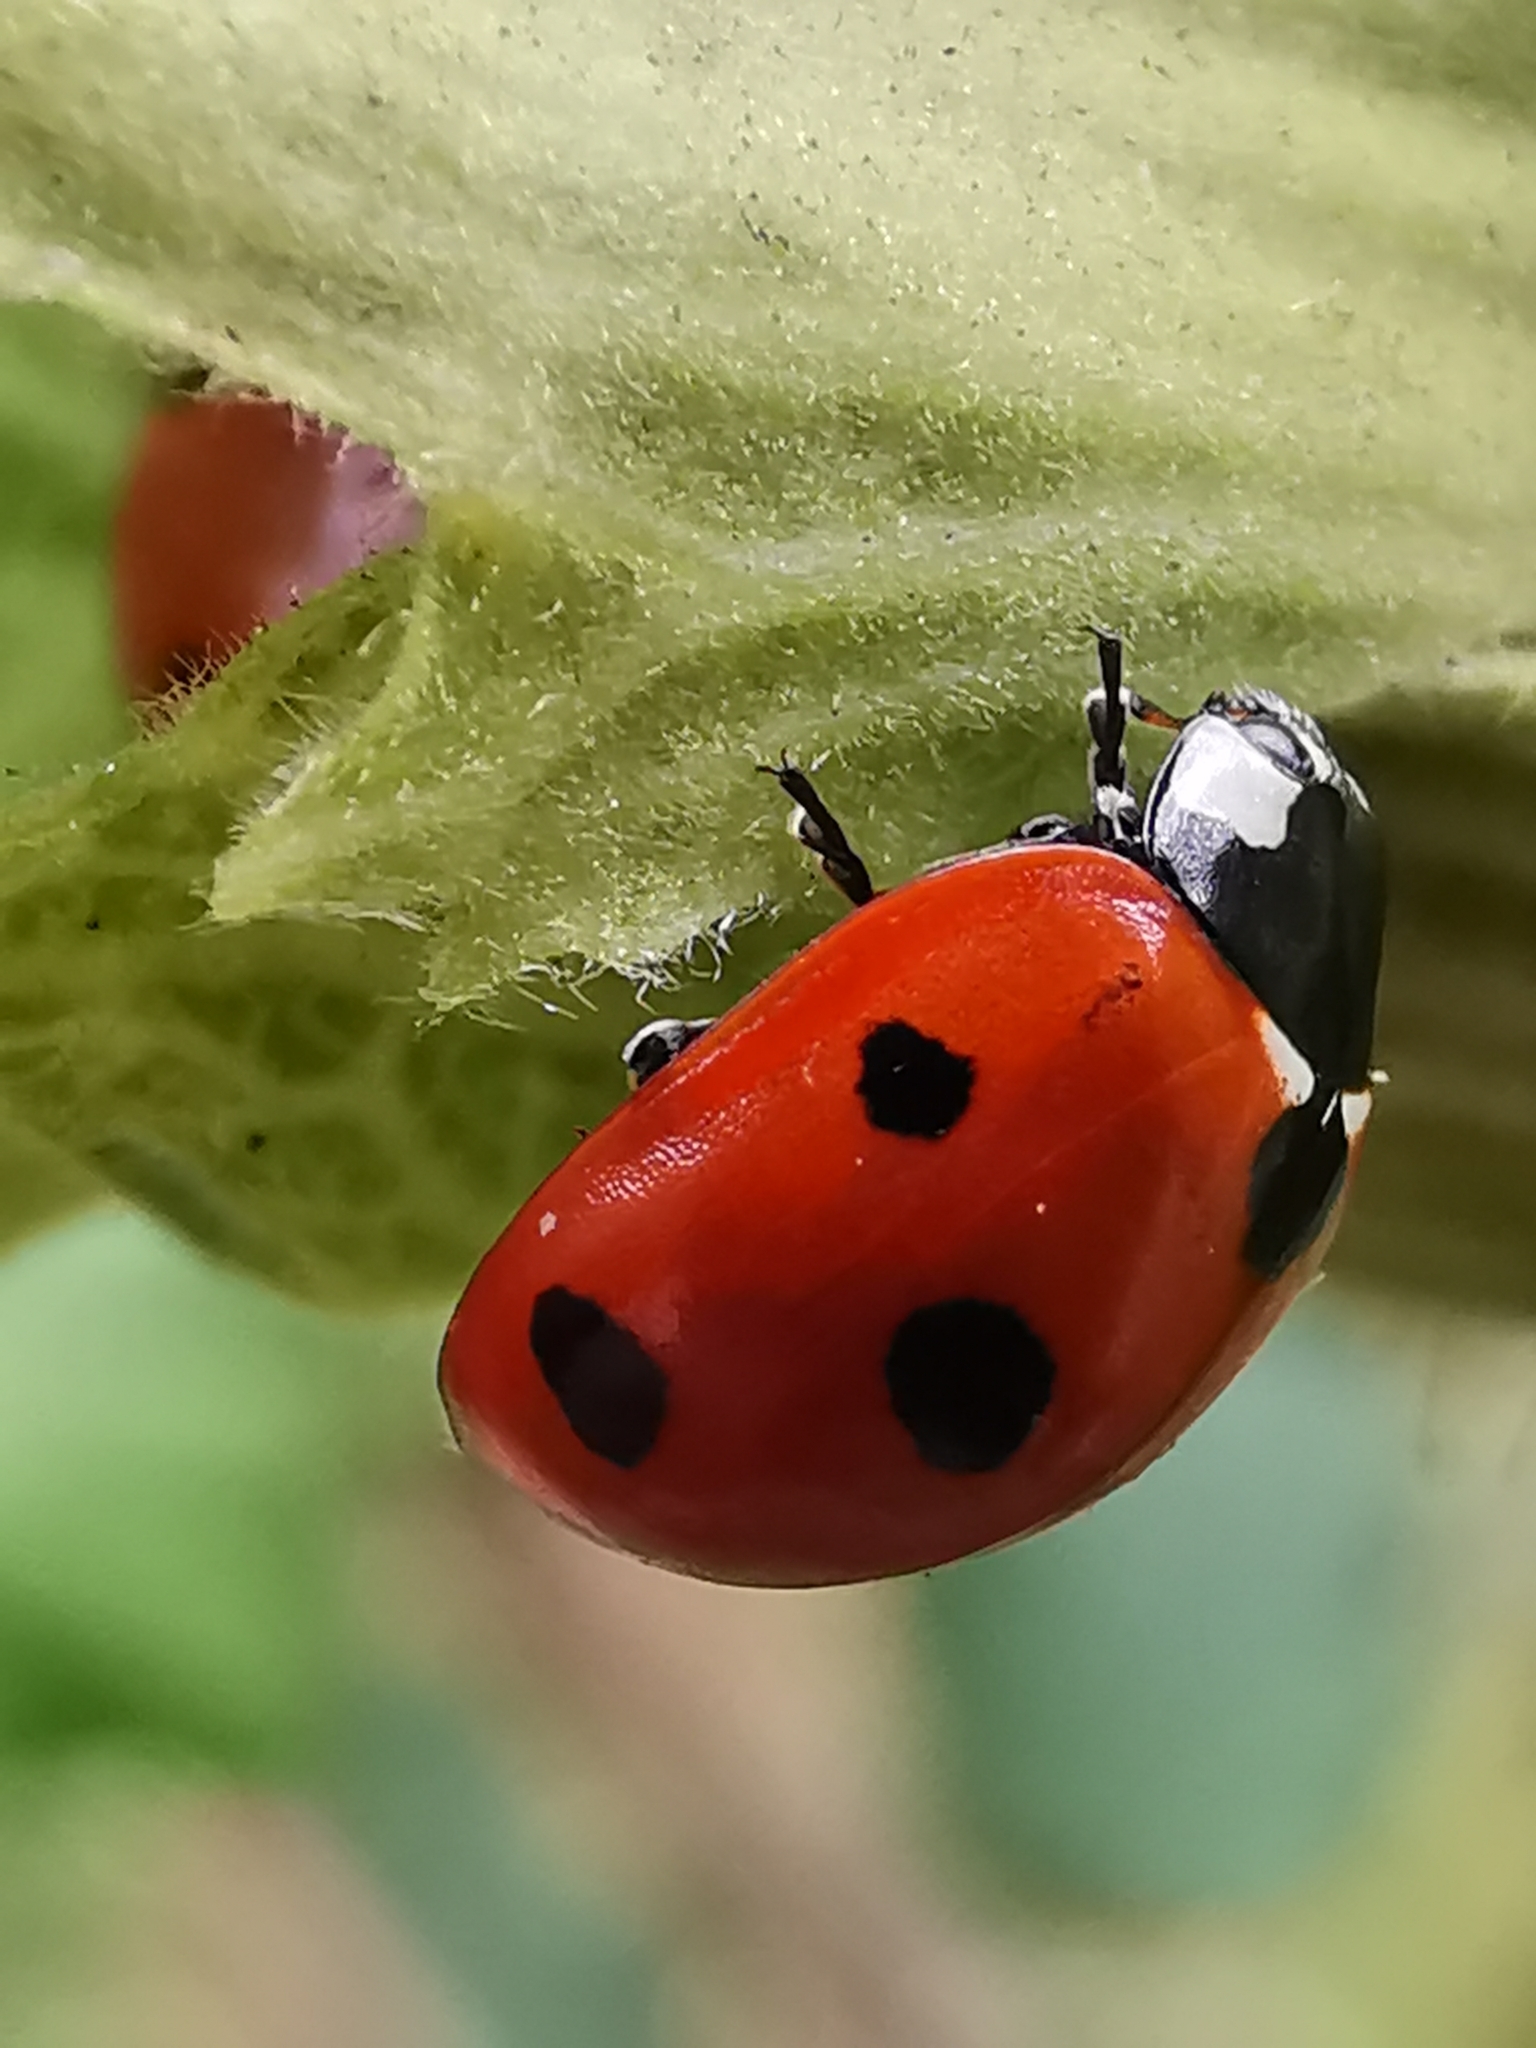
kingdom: Animalia
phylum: Arthropoda
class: Insecta
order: Coleoptera
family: Coccinellidae
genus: Coccinella
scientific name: Coccinella septempunctata
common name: Sevenspotted lady beetle
